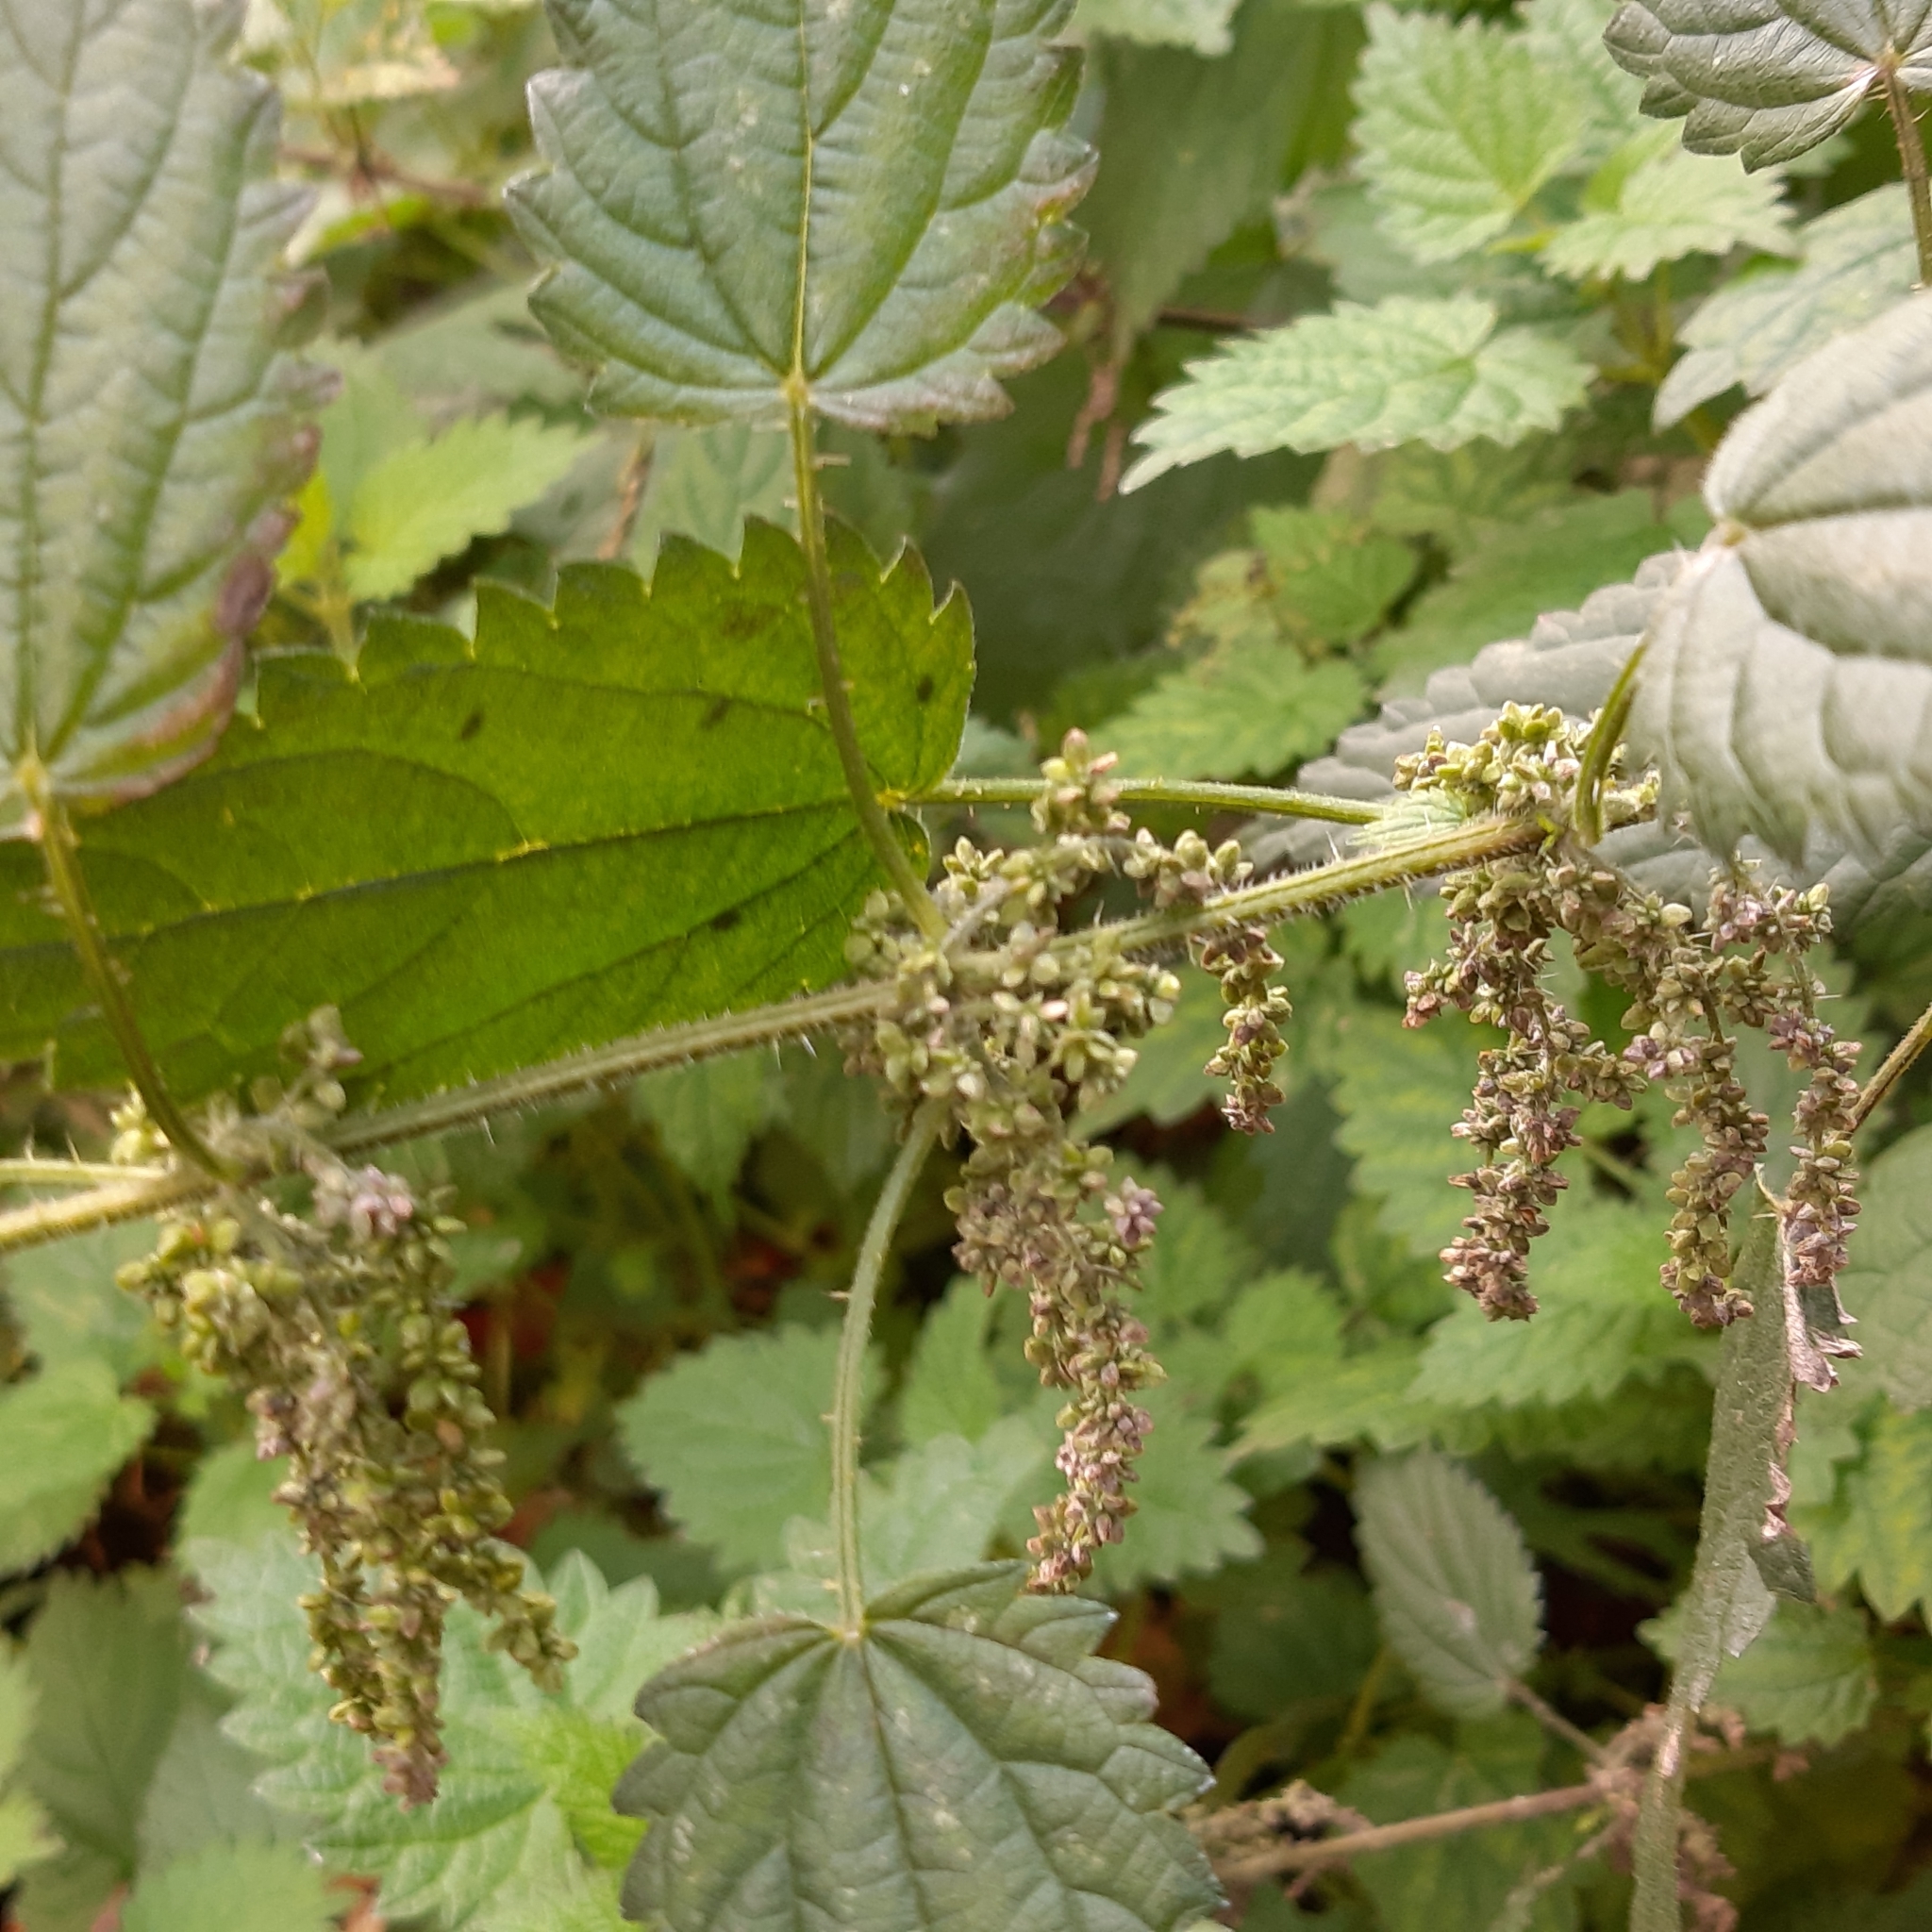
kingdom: Plantae
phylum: Tracheophyta
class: Magnoliopsida
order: Rosales
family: Urticaceae
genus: Urtica
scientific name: Urtica dioica
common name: Common nettle
